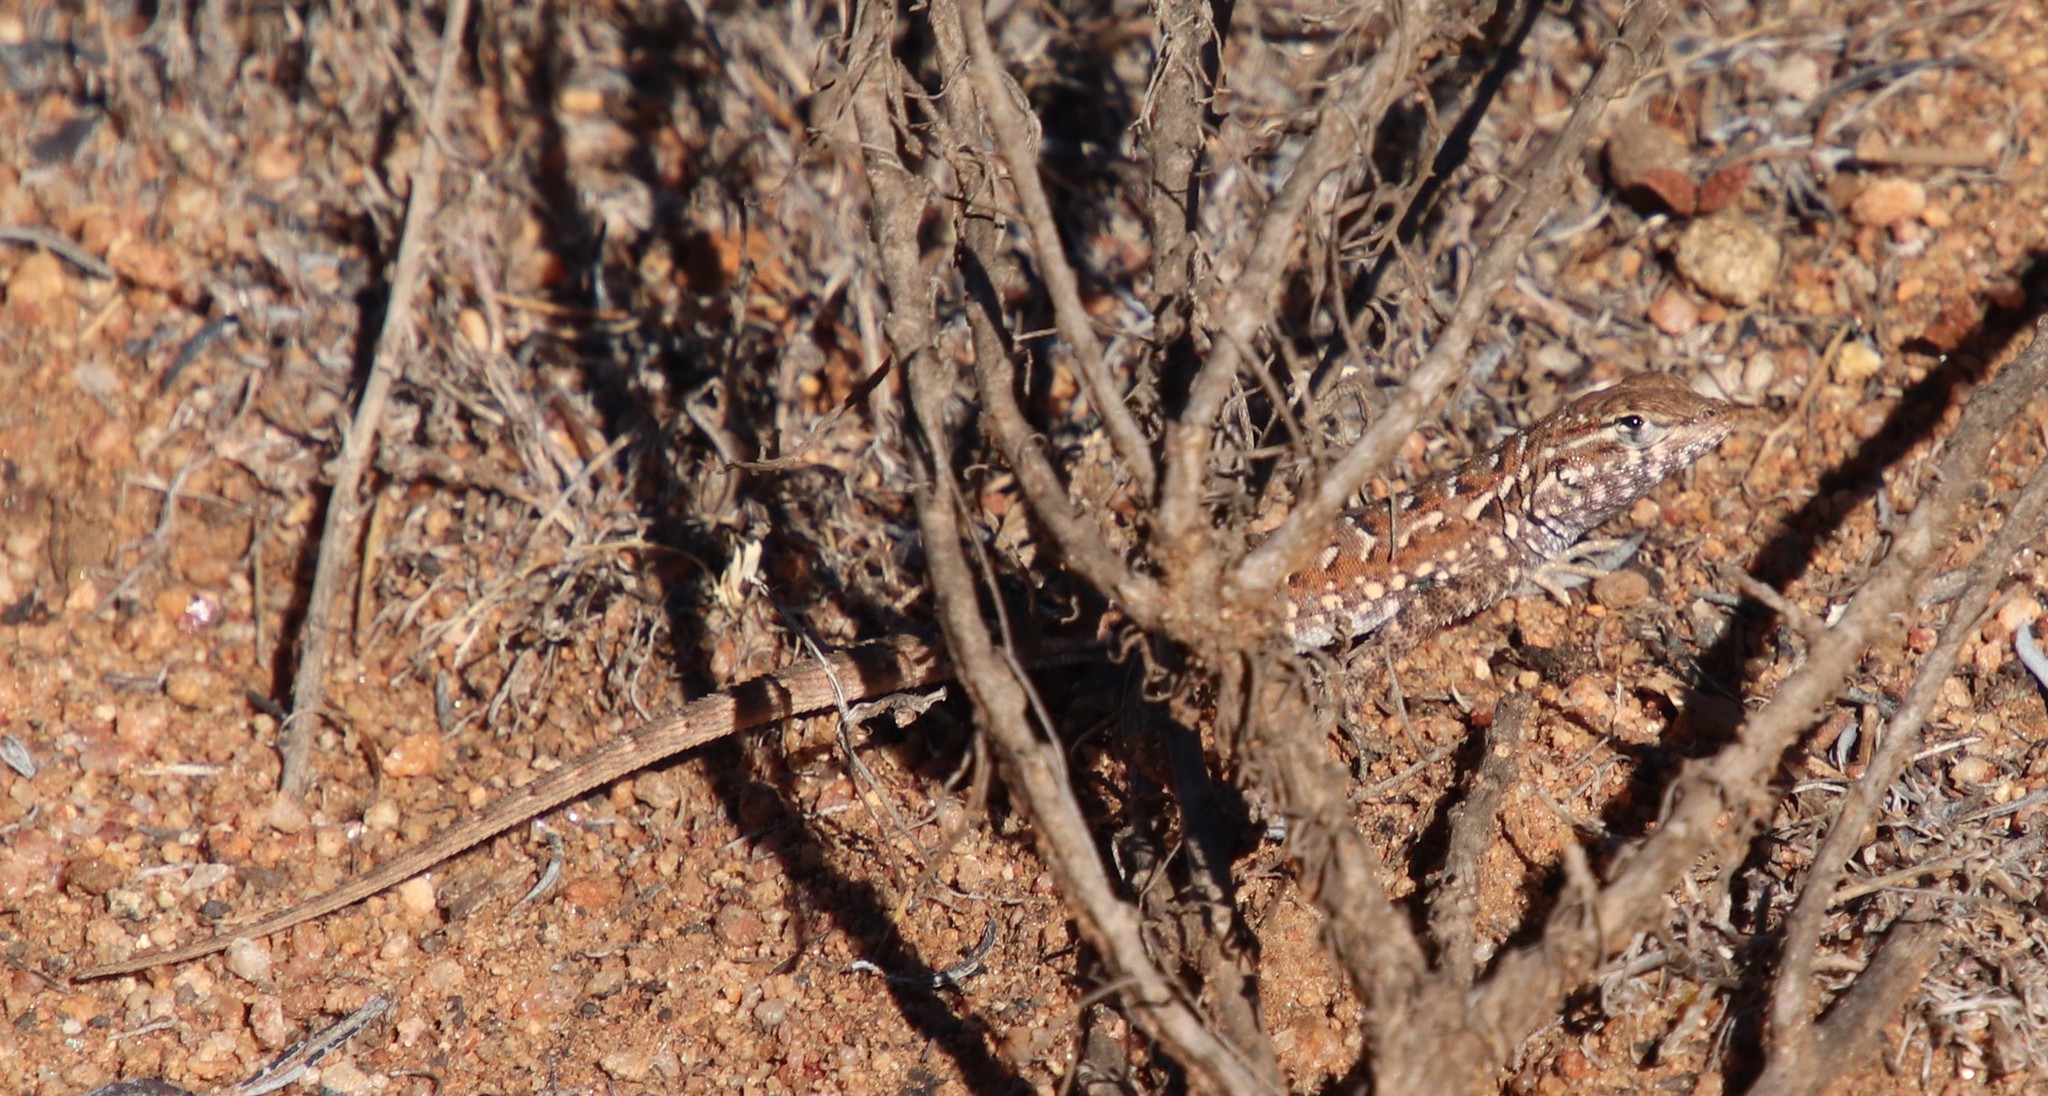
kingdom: Animalia
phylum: Chordata
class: Squamata
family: Phrynosomatidae
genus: Uta
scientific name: Uta stansburiana
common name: Side-blotched lizard
